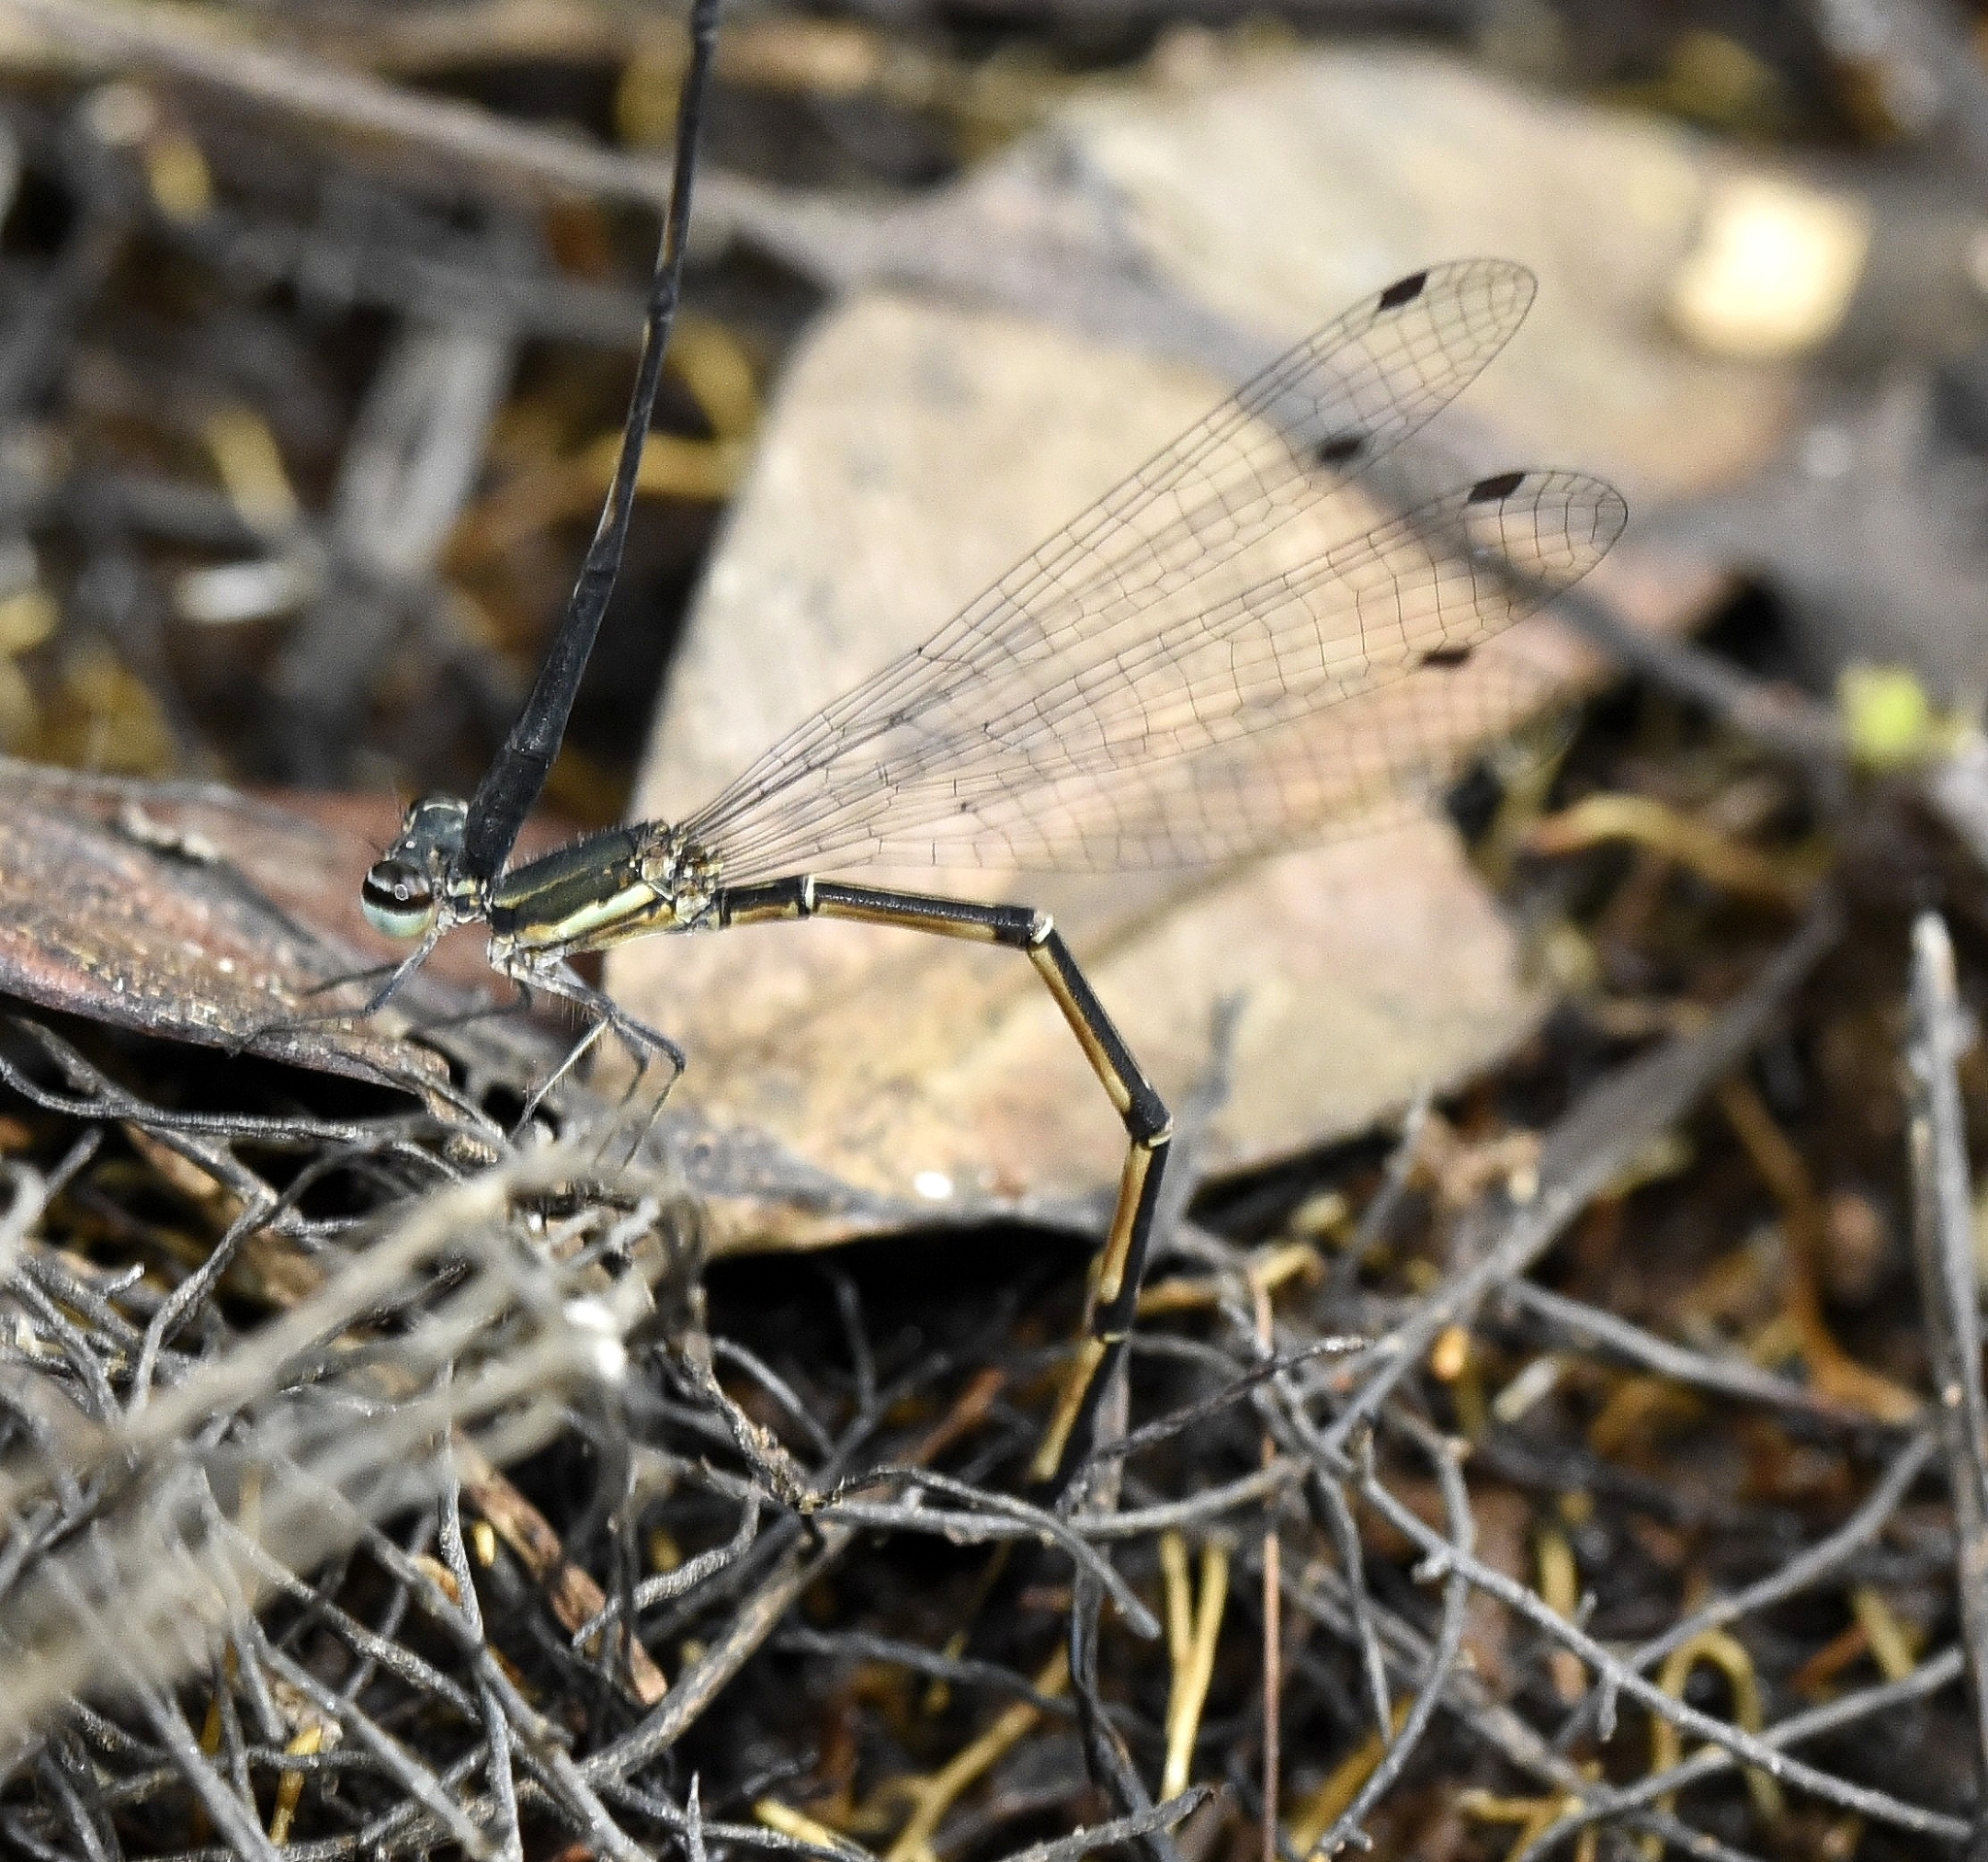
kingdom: Animalia
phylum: Arthropoda
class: Insecta
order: Odonata
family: Platycnemididae
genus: Elattoneura
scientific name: Elattoneura tetrica
